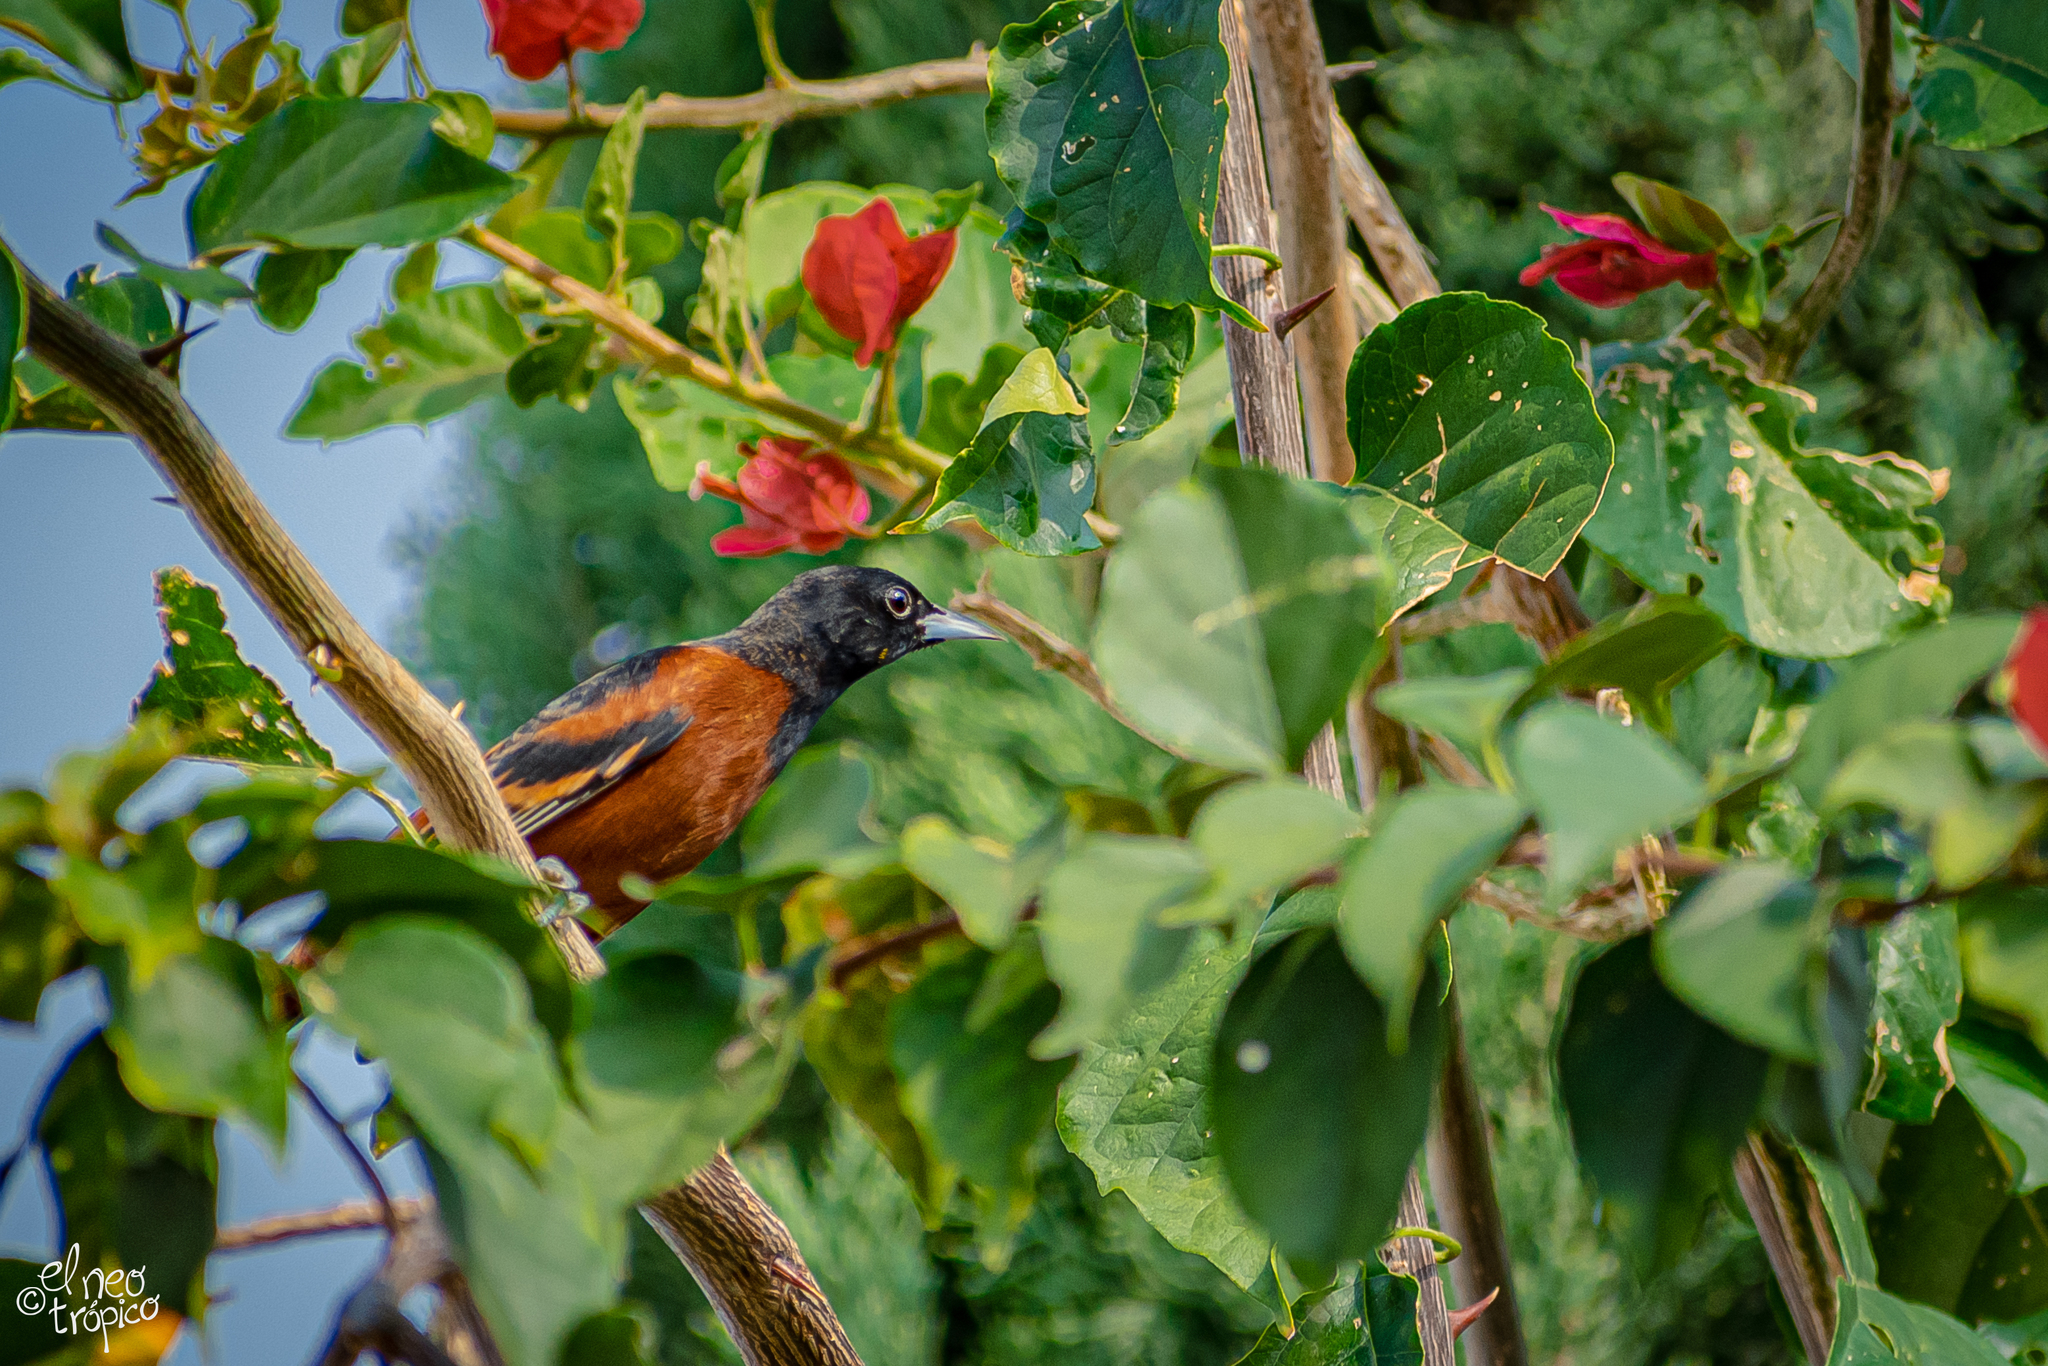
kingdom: Animalia
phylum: Chordata
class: Aves
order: Passeriformes
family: Icteridae
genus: Icterus
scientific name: Icterus spurius
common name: Orchard oriole
